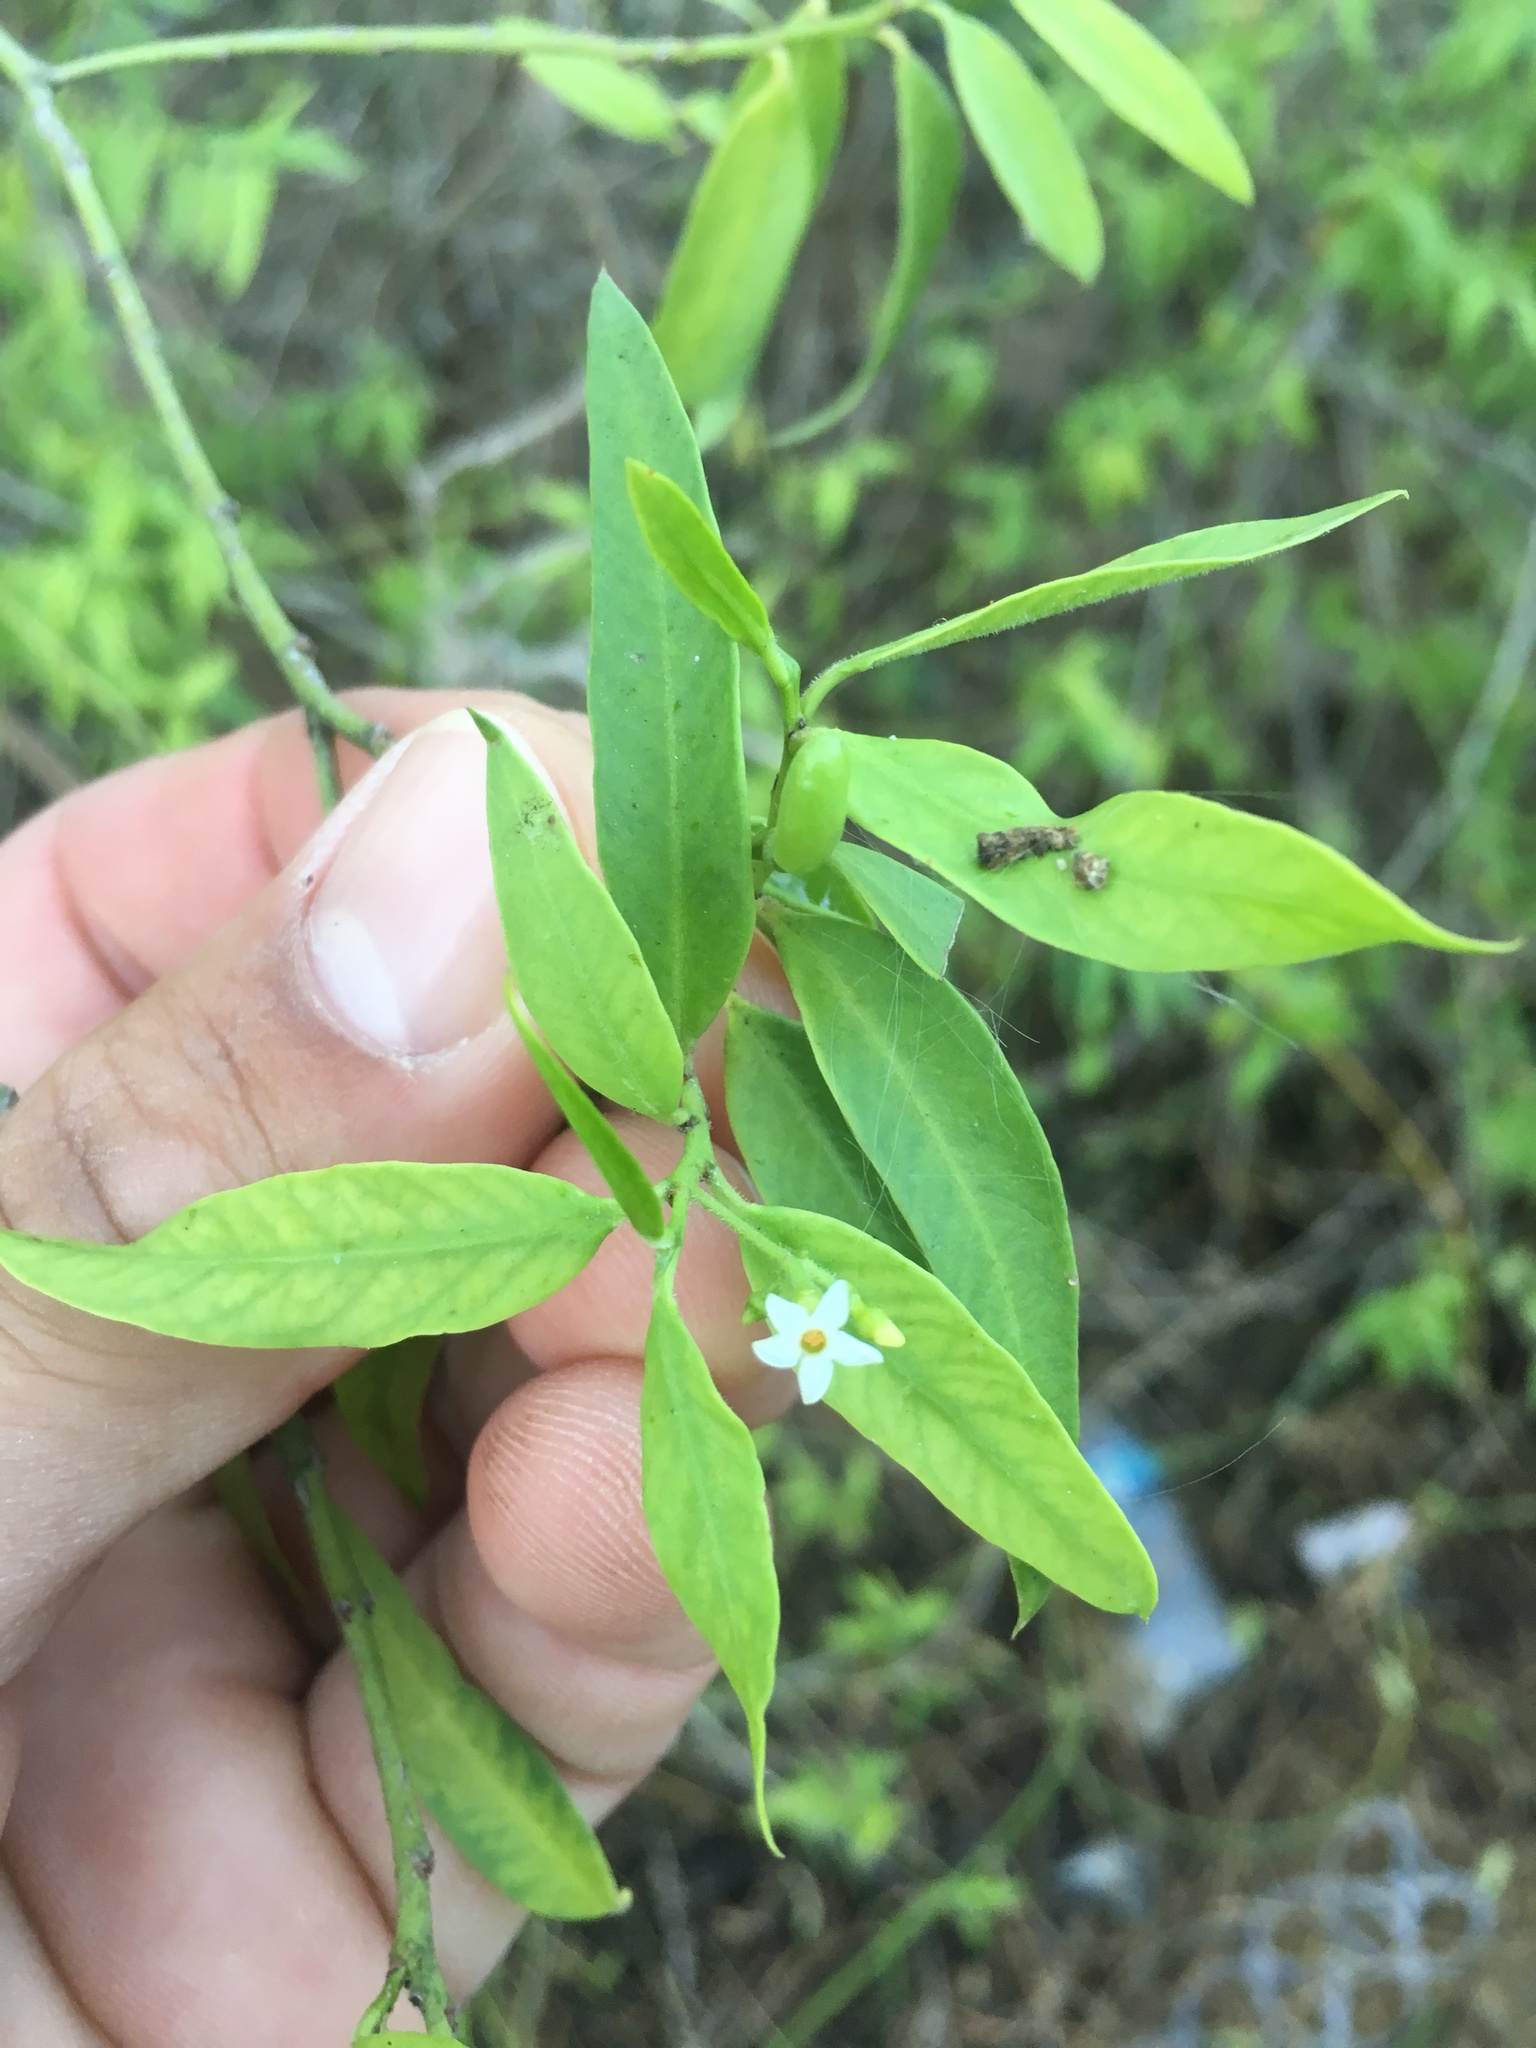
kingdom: Plantae
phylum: Tracheophyta
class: Magnoliopsida
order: Gentianales
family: Apocynaceae
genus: Vallesia
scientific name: Vallesia glabra
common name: Pearlberry
